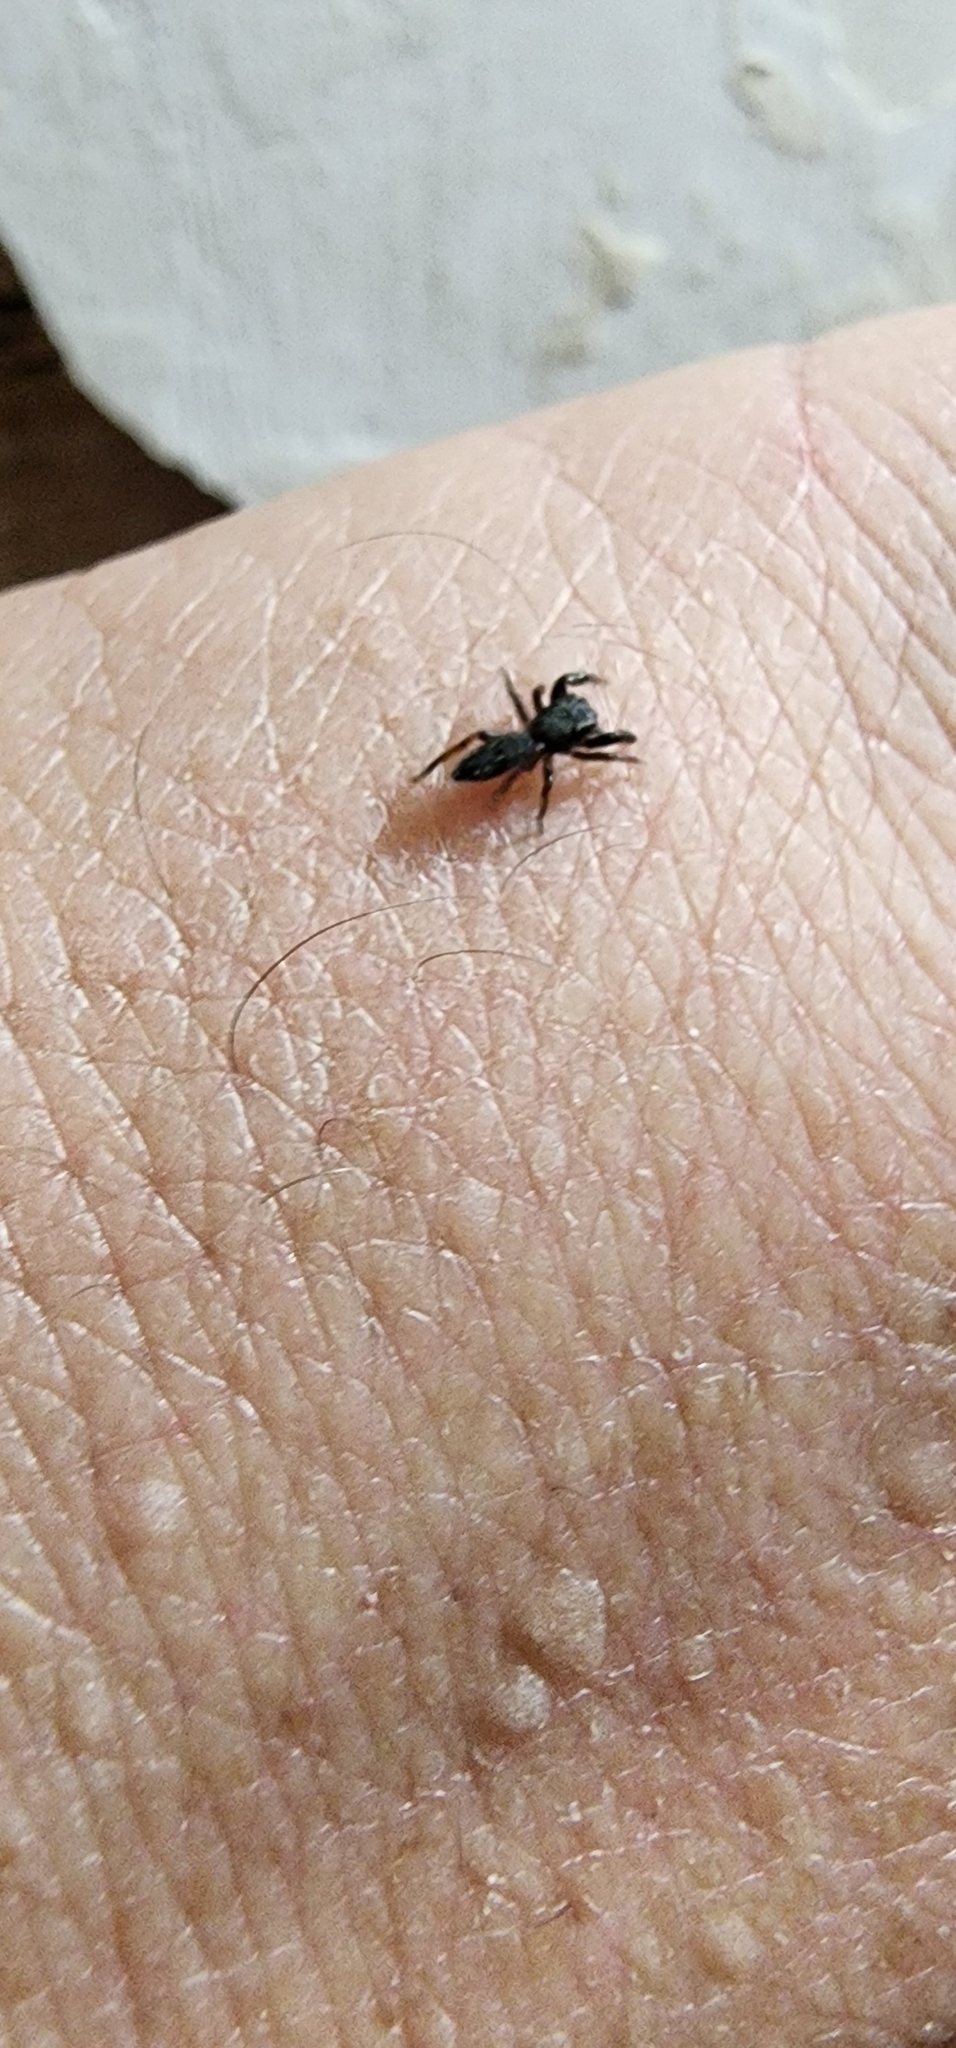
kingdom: Animalia
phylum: Arthropoda
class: Arachnida
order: Araneae
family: Salticidae
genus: Metacyrba
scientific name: Metacyrba taeniola
